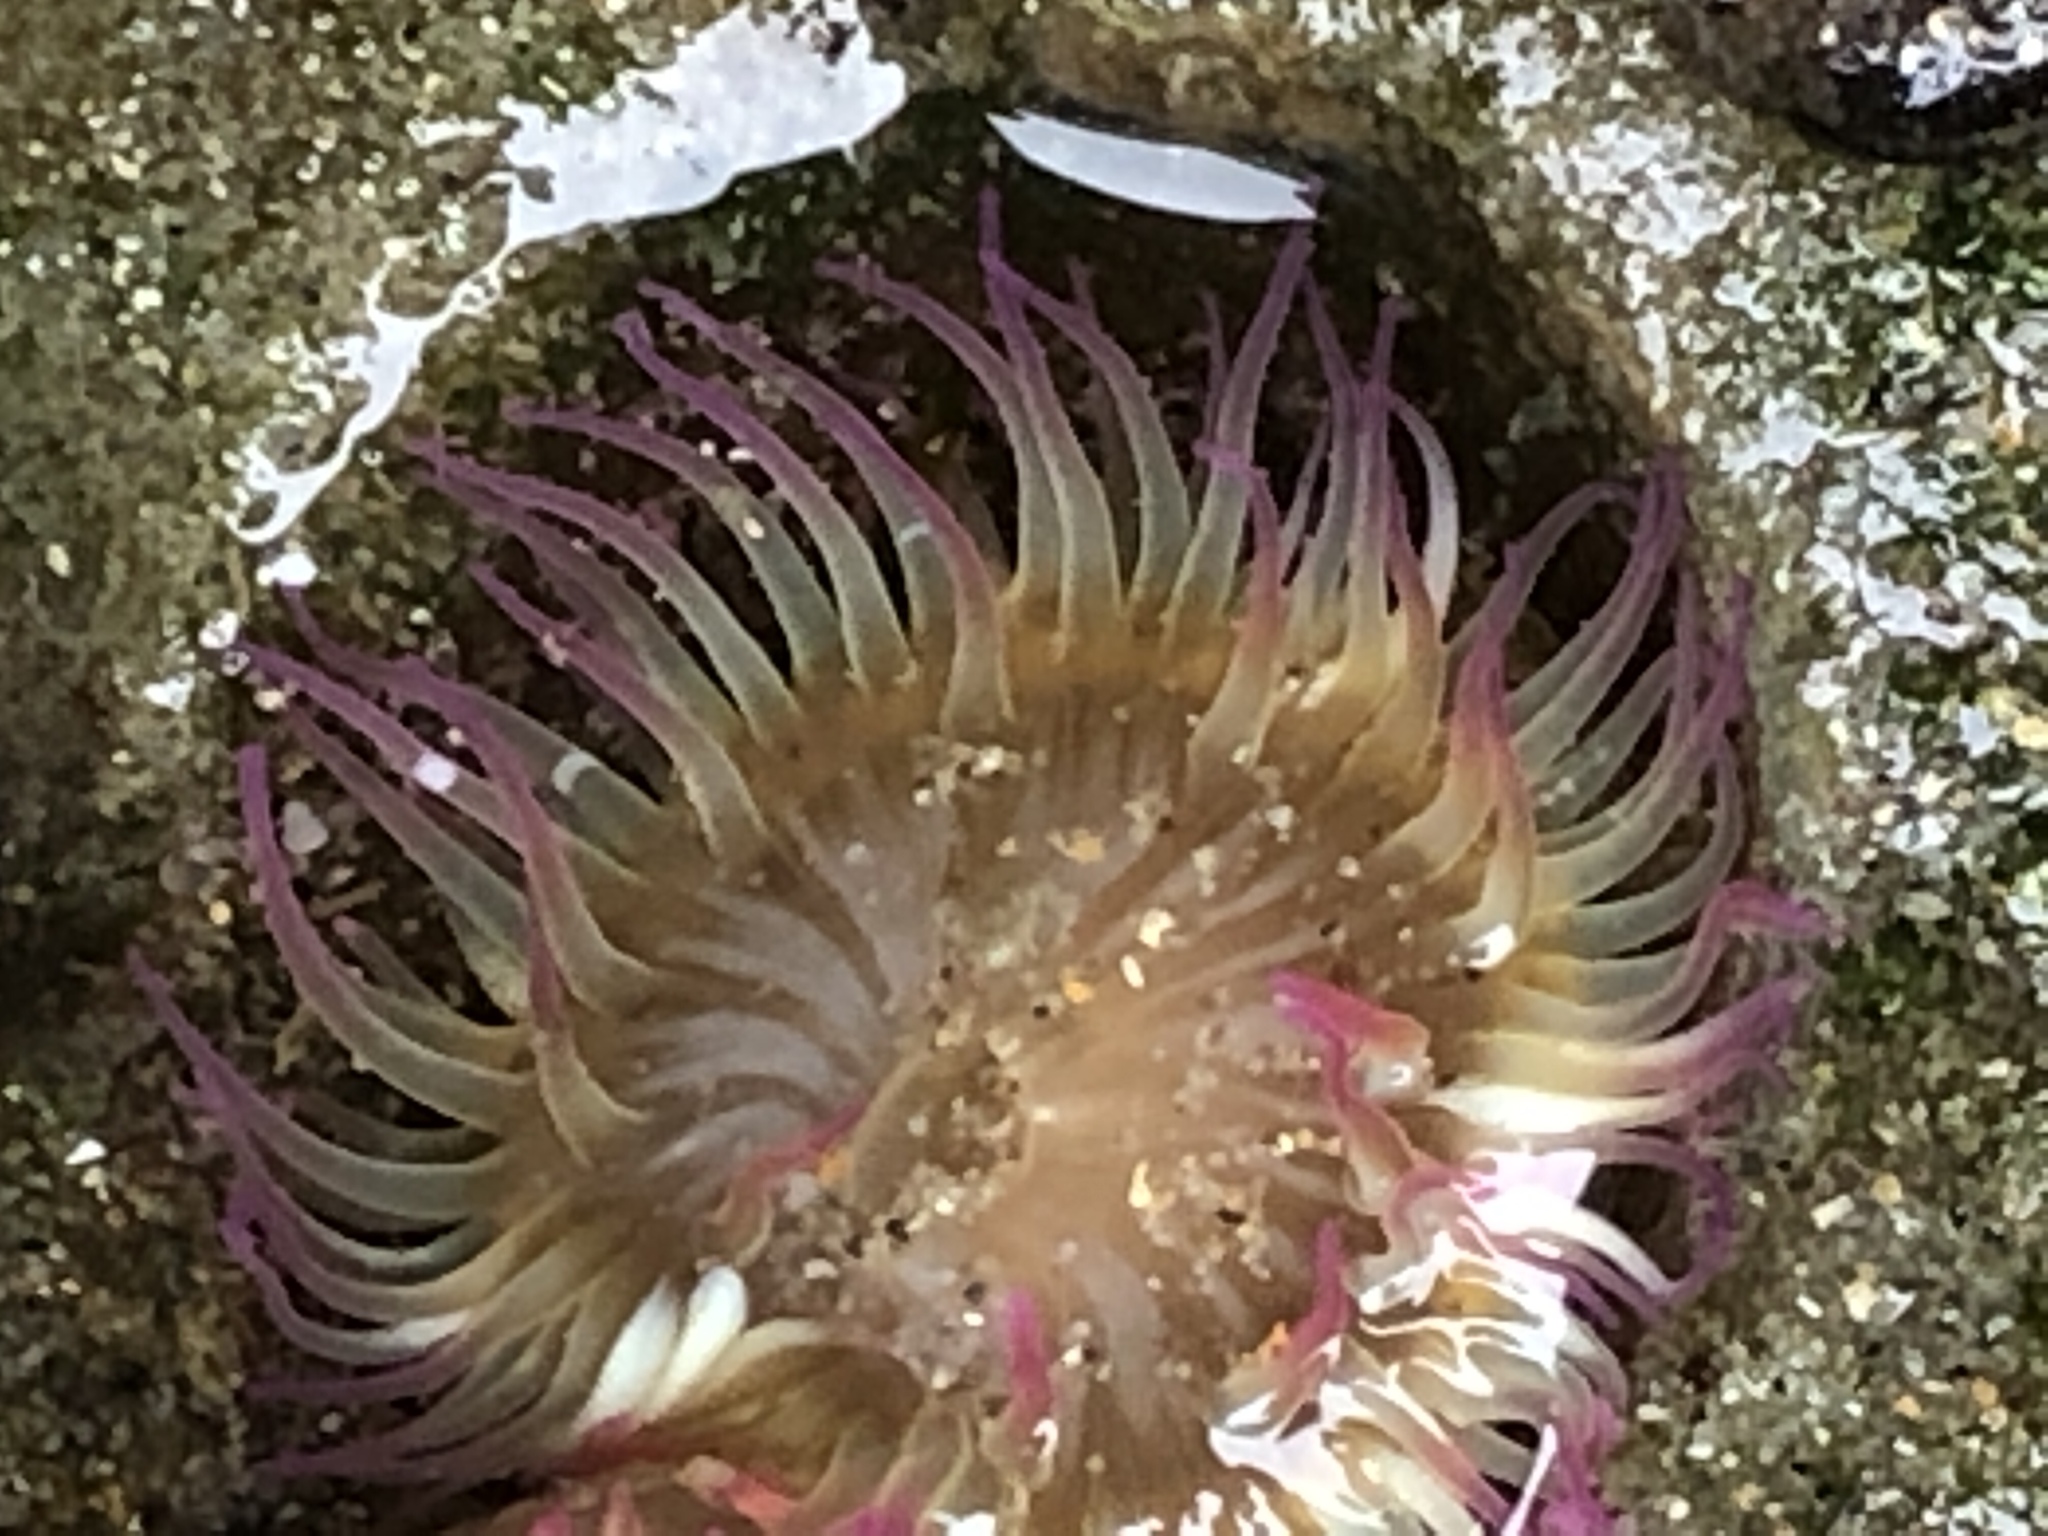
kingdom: Animalia
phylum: Cnidaria
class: Anthozoa
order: Actiniaria
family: Actiniidae
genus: Anthopleura
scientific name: Anthopleura elegantissima
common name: Clonal anemone
